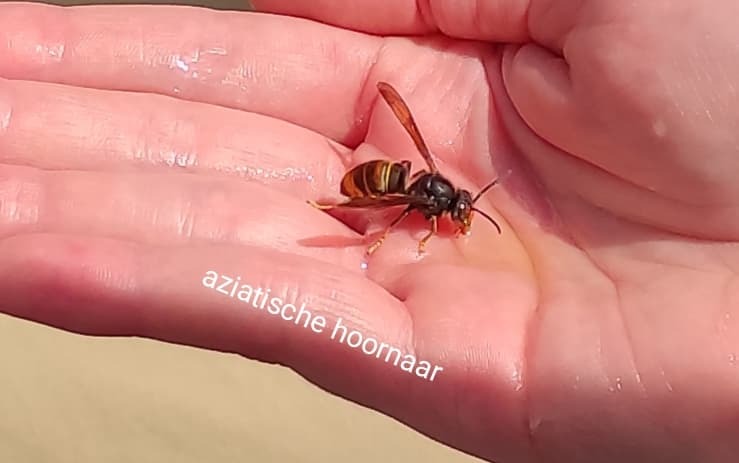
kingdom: Animalia
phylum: Arthropoda
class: Insecta
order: Hymenoptera
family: Vespidae
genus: Vespa
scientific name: Vespa velutina
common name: Asian hornet
